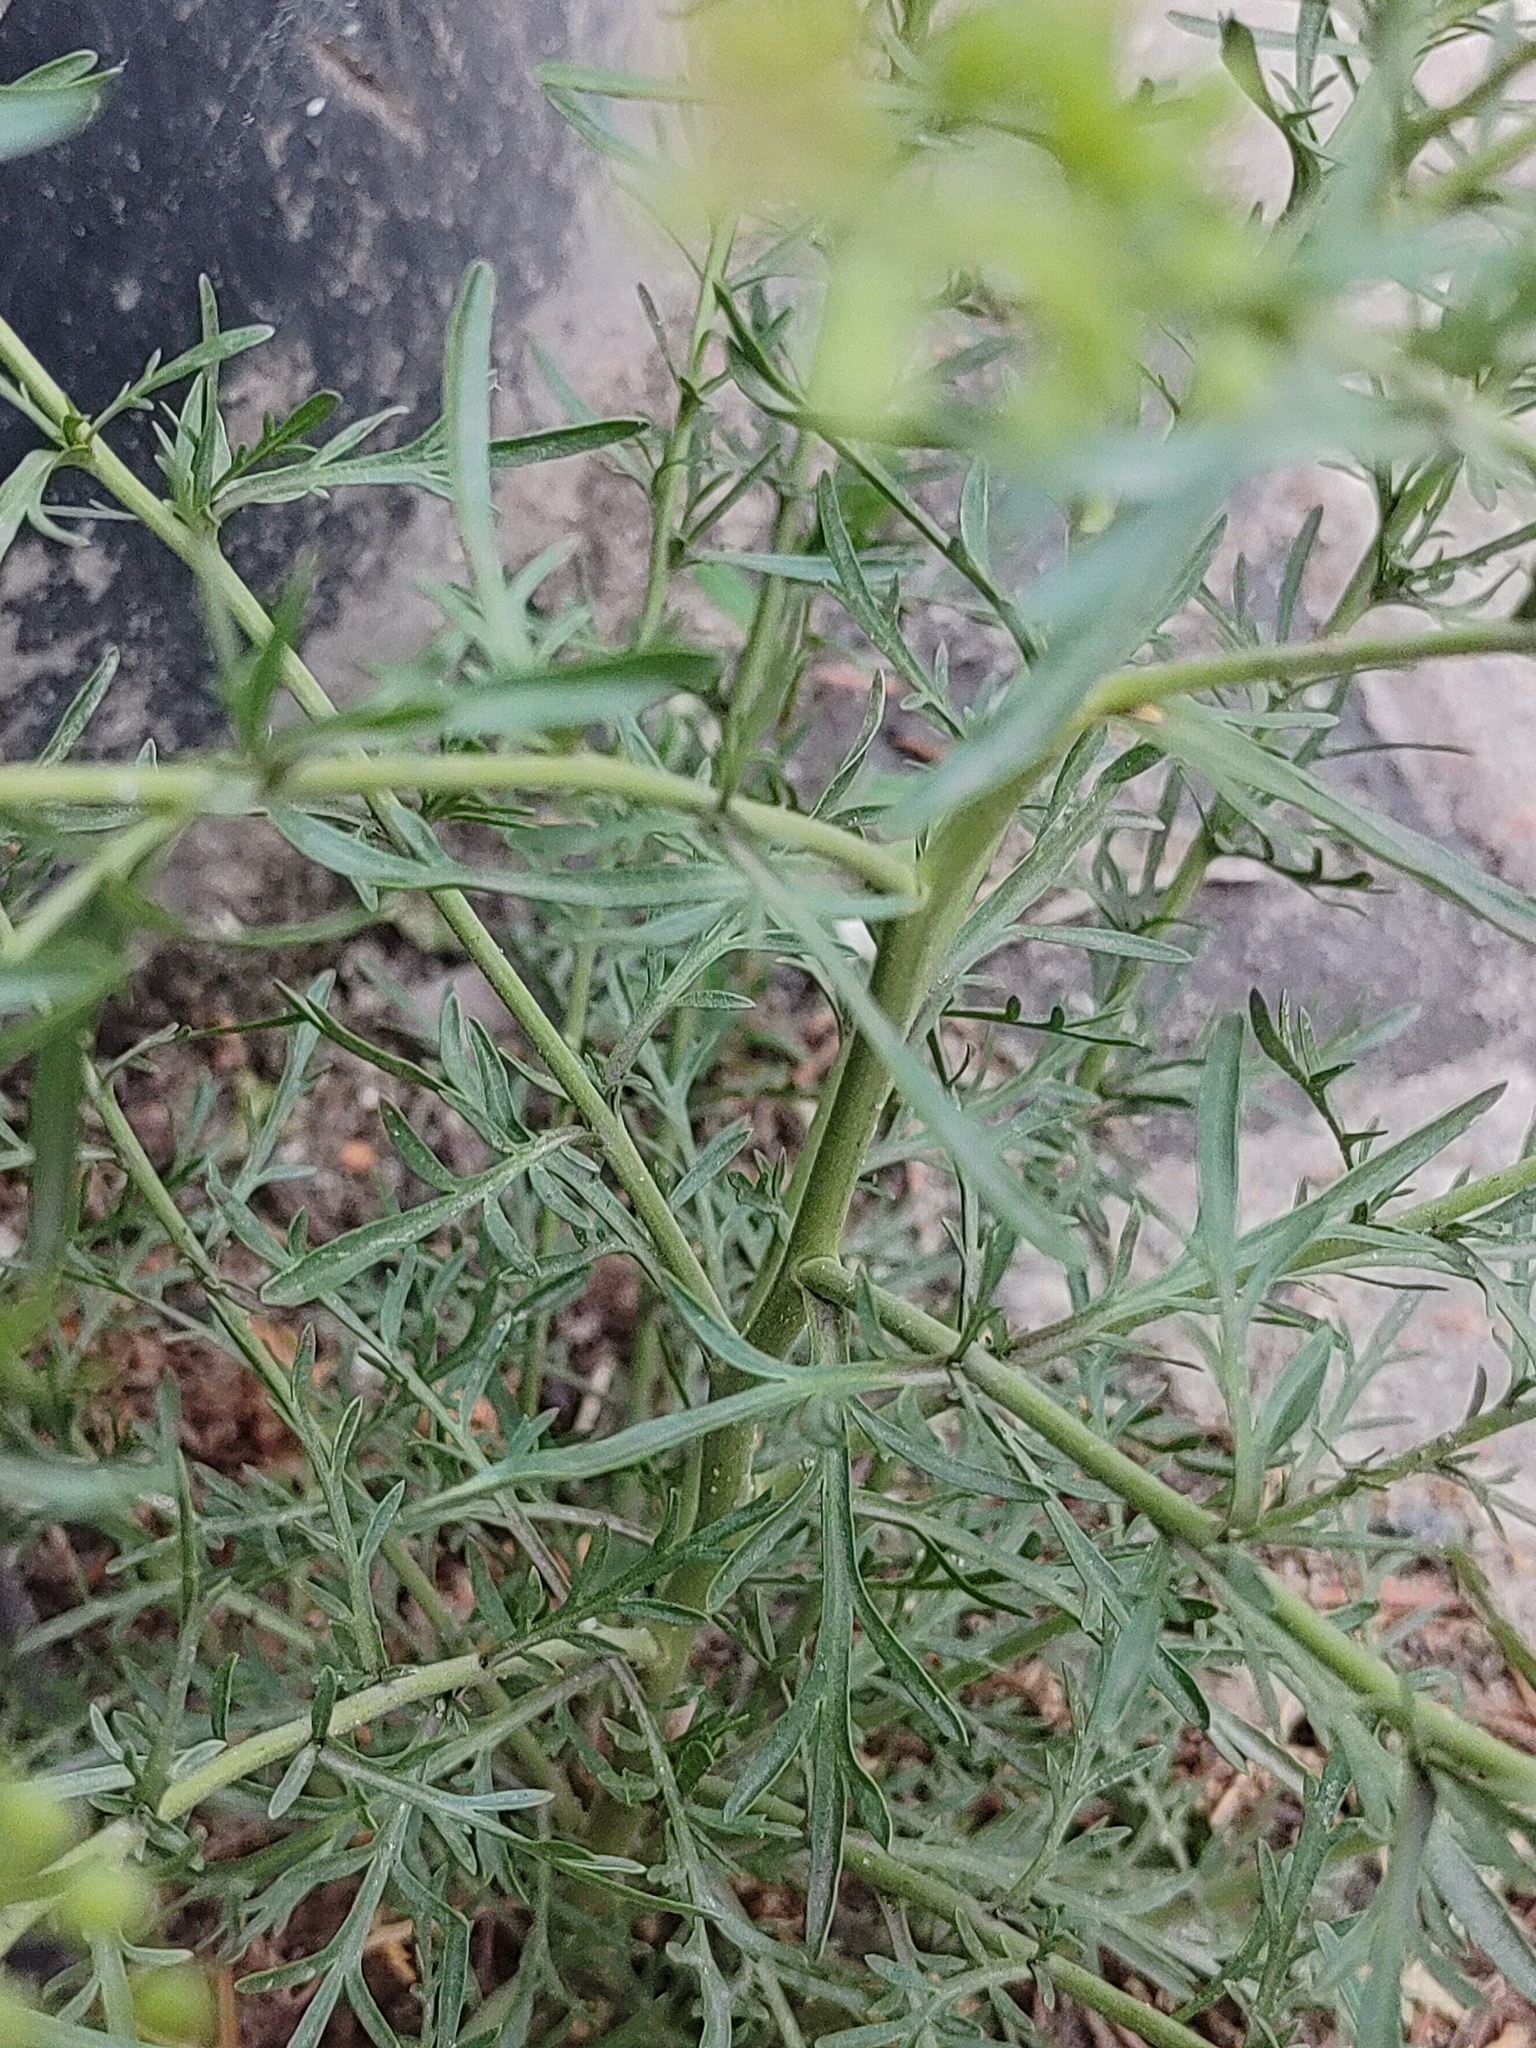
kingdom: Plantae
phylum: Tracheophyta
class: Magnoliopsida
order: Brassicales
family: Brassicaceae
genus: Lepidium
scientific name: Lepidium ruderale
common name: Narrow-leaved pepperwort
